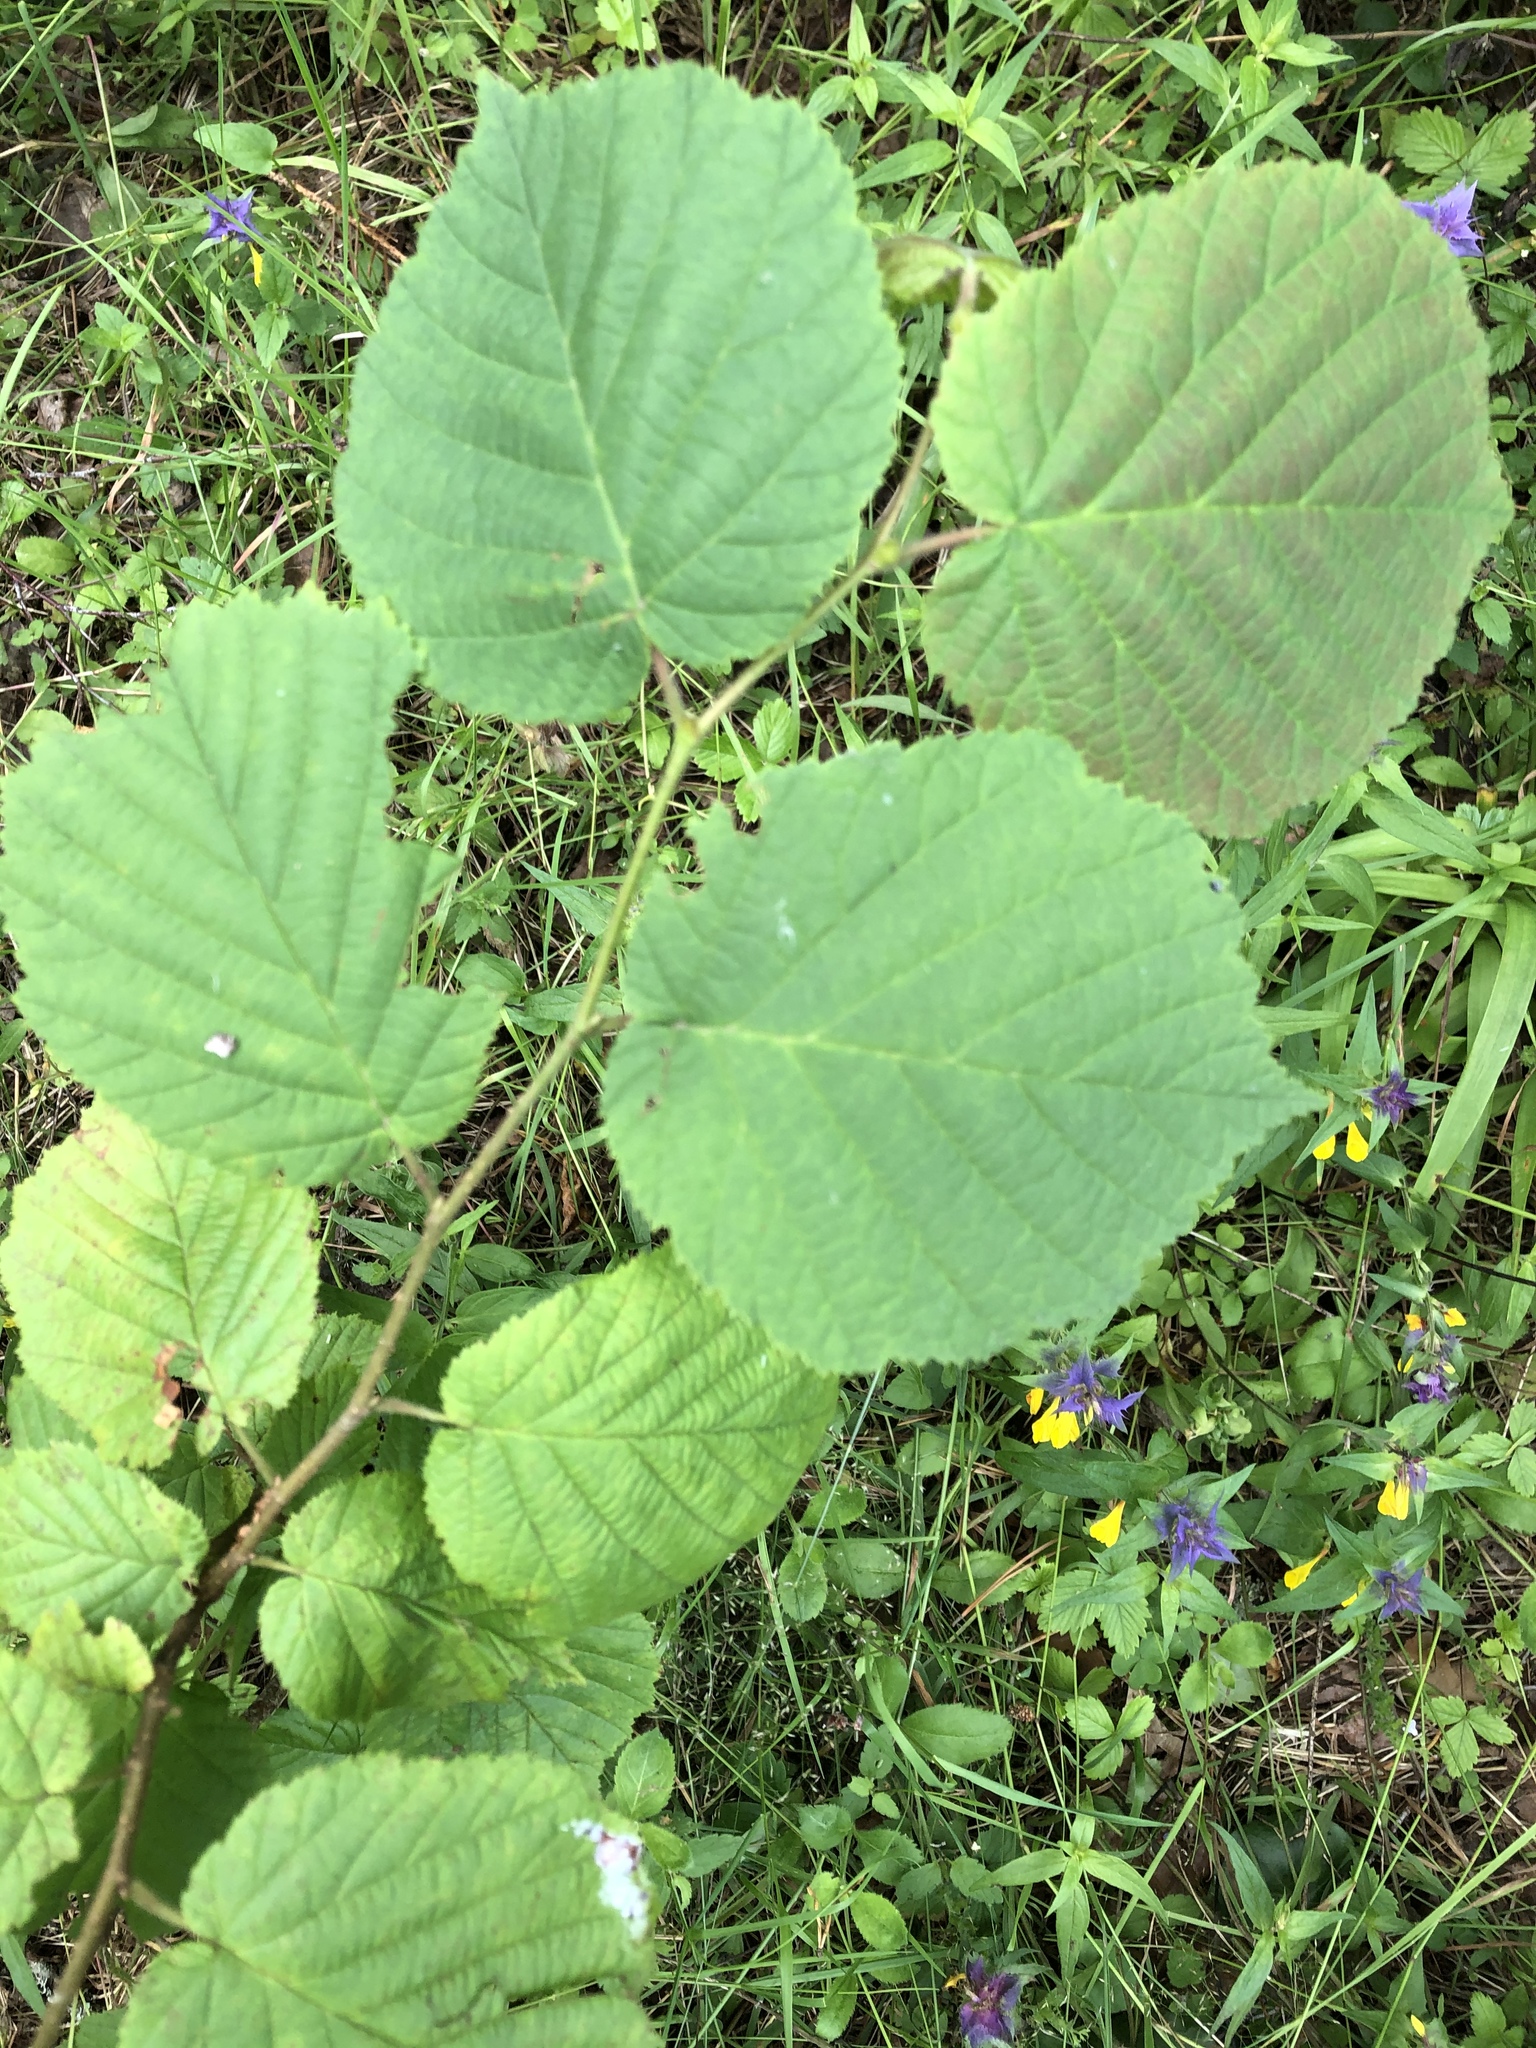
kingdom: Plantae
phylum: Tracheophyta
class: Magnoliopsida
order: Fagales
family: Betulaceae
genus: Corylus
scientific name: Corylus avellana
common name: European hazel
